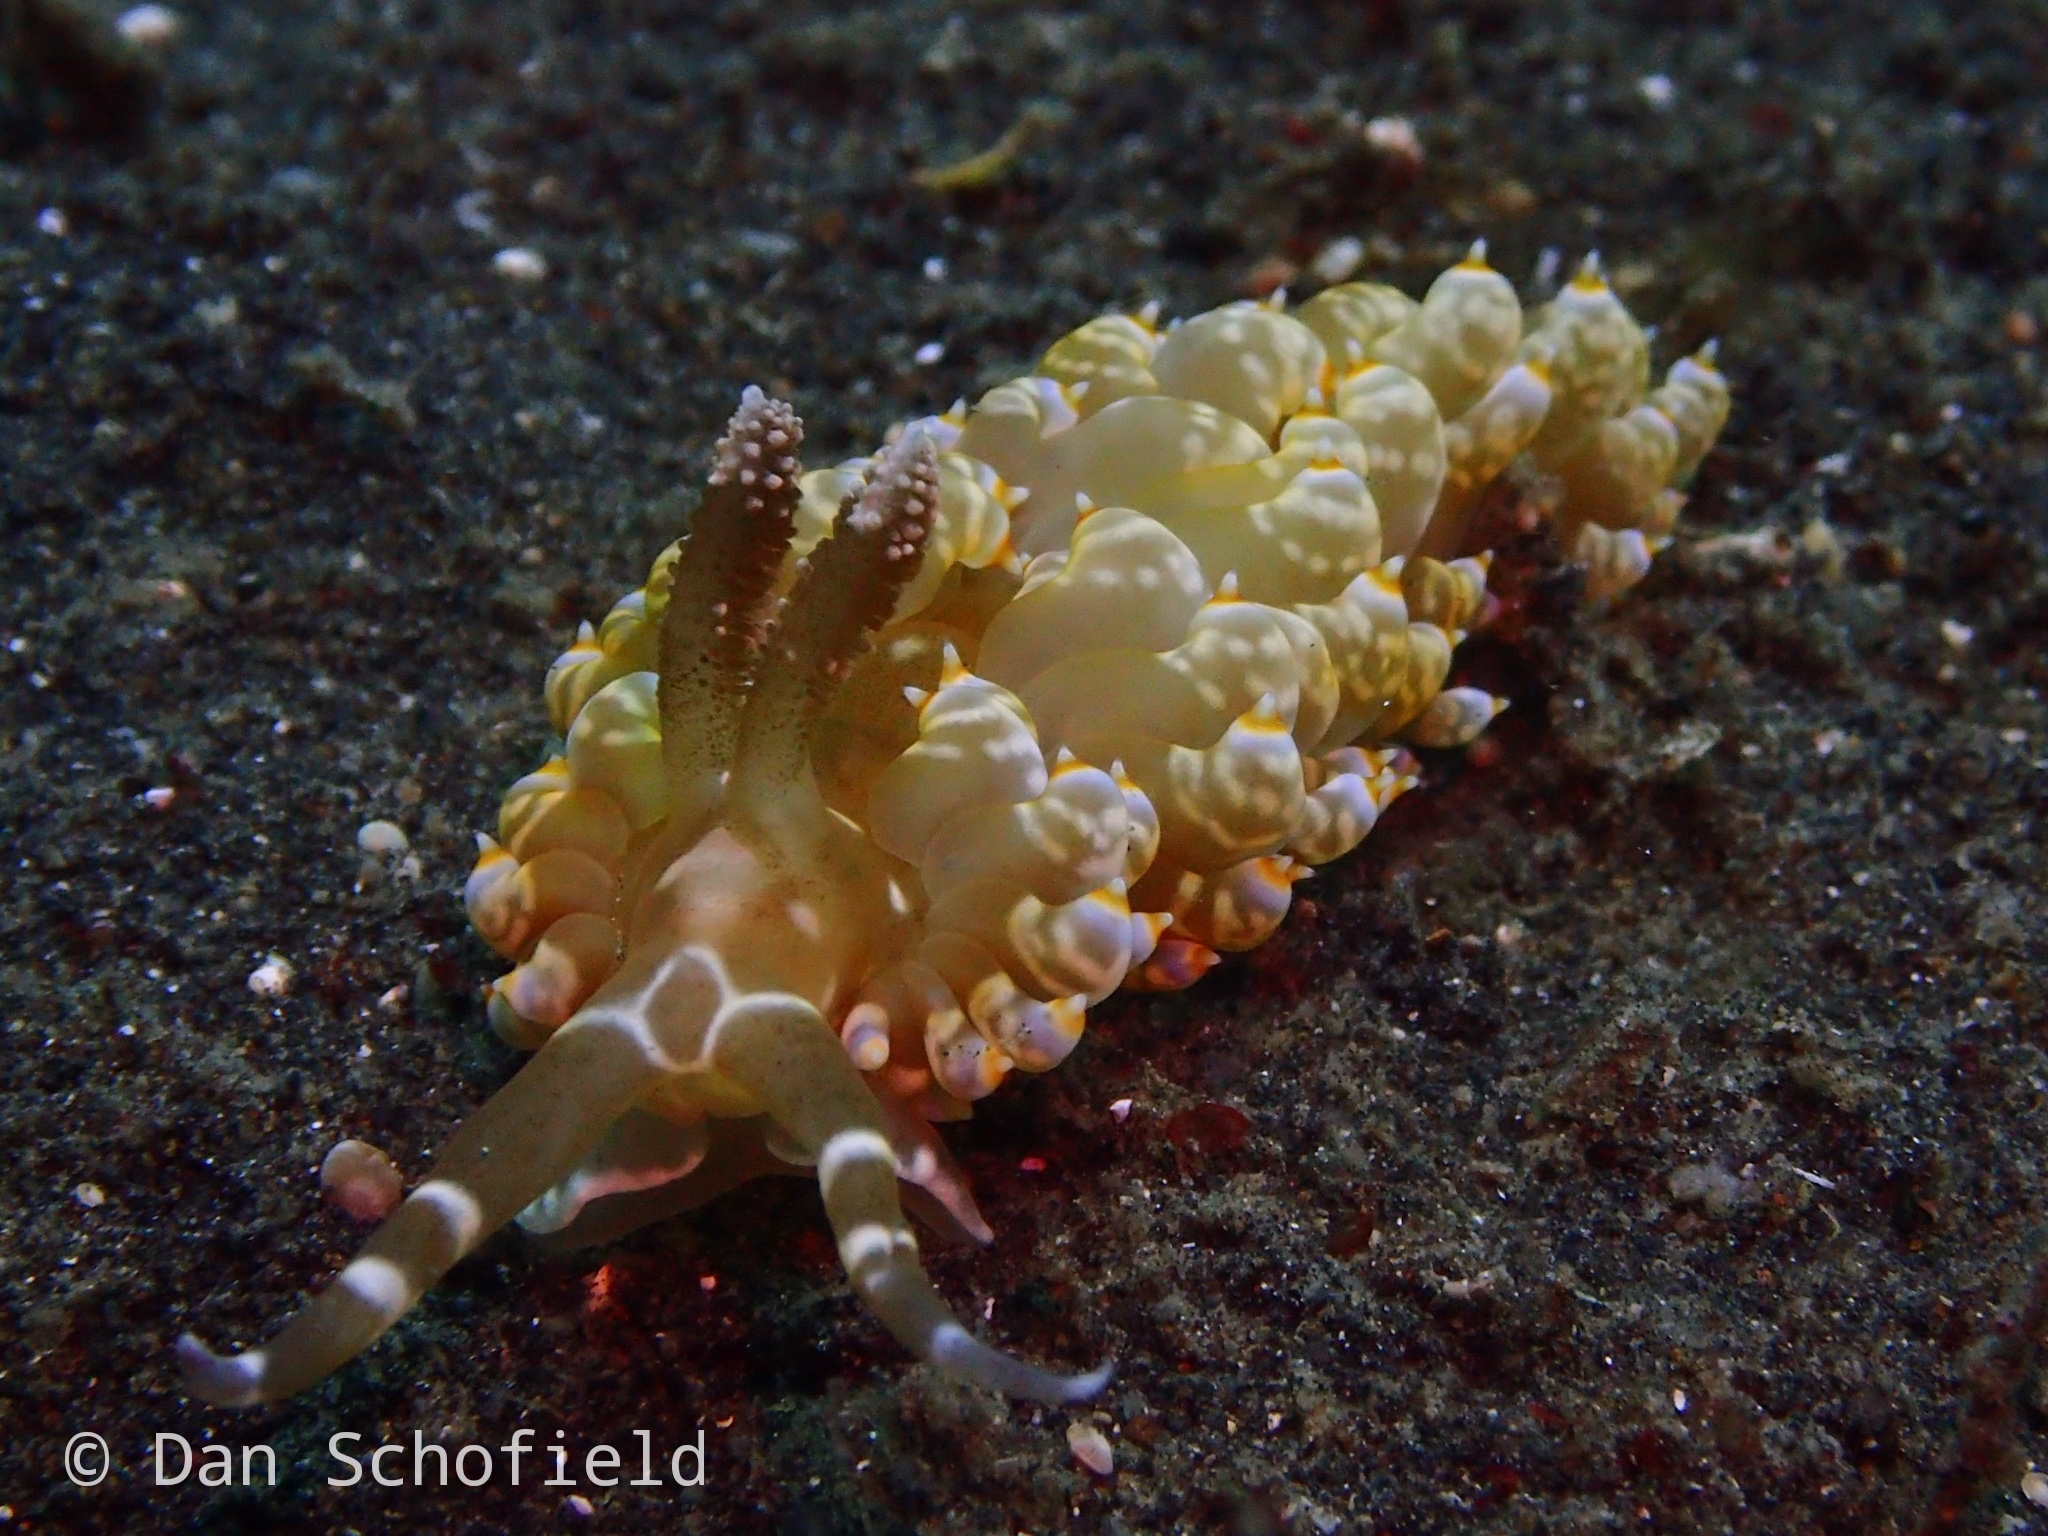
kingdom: Animalia
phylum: Mollusca
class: Gastropoda
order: Nudibranchia
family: Aeolidiidae
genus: Baeolidia
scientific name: Baeolidia moebii
